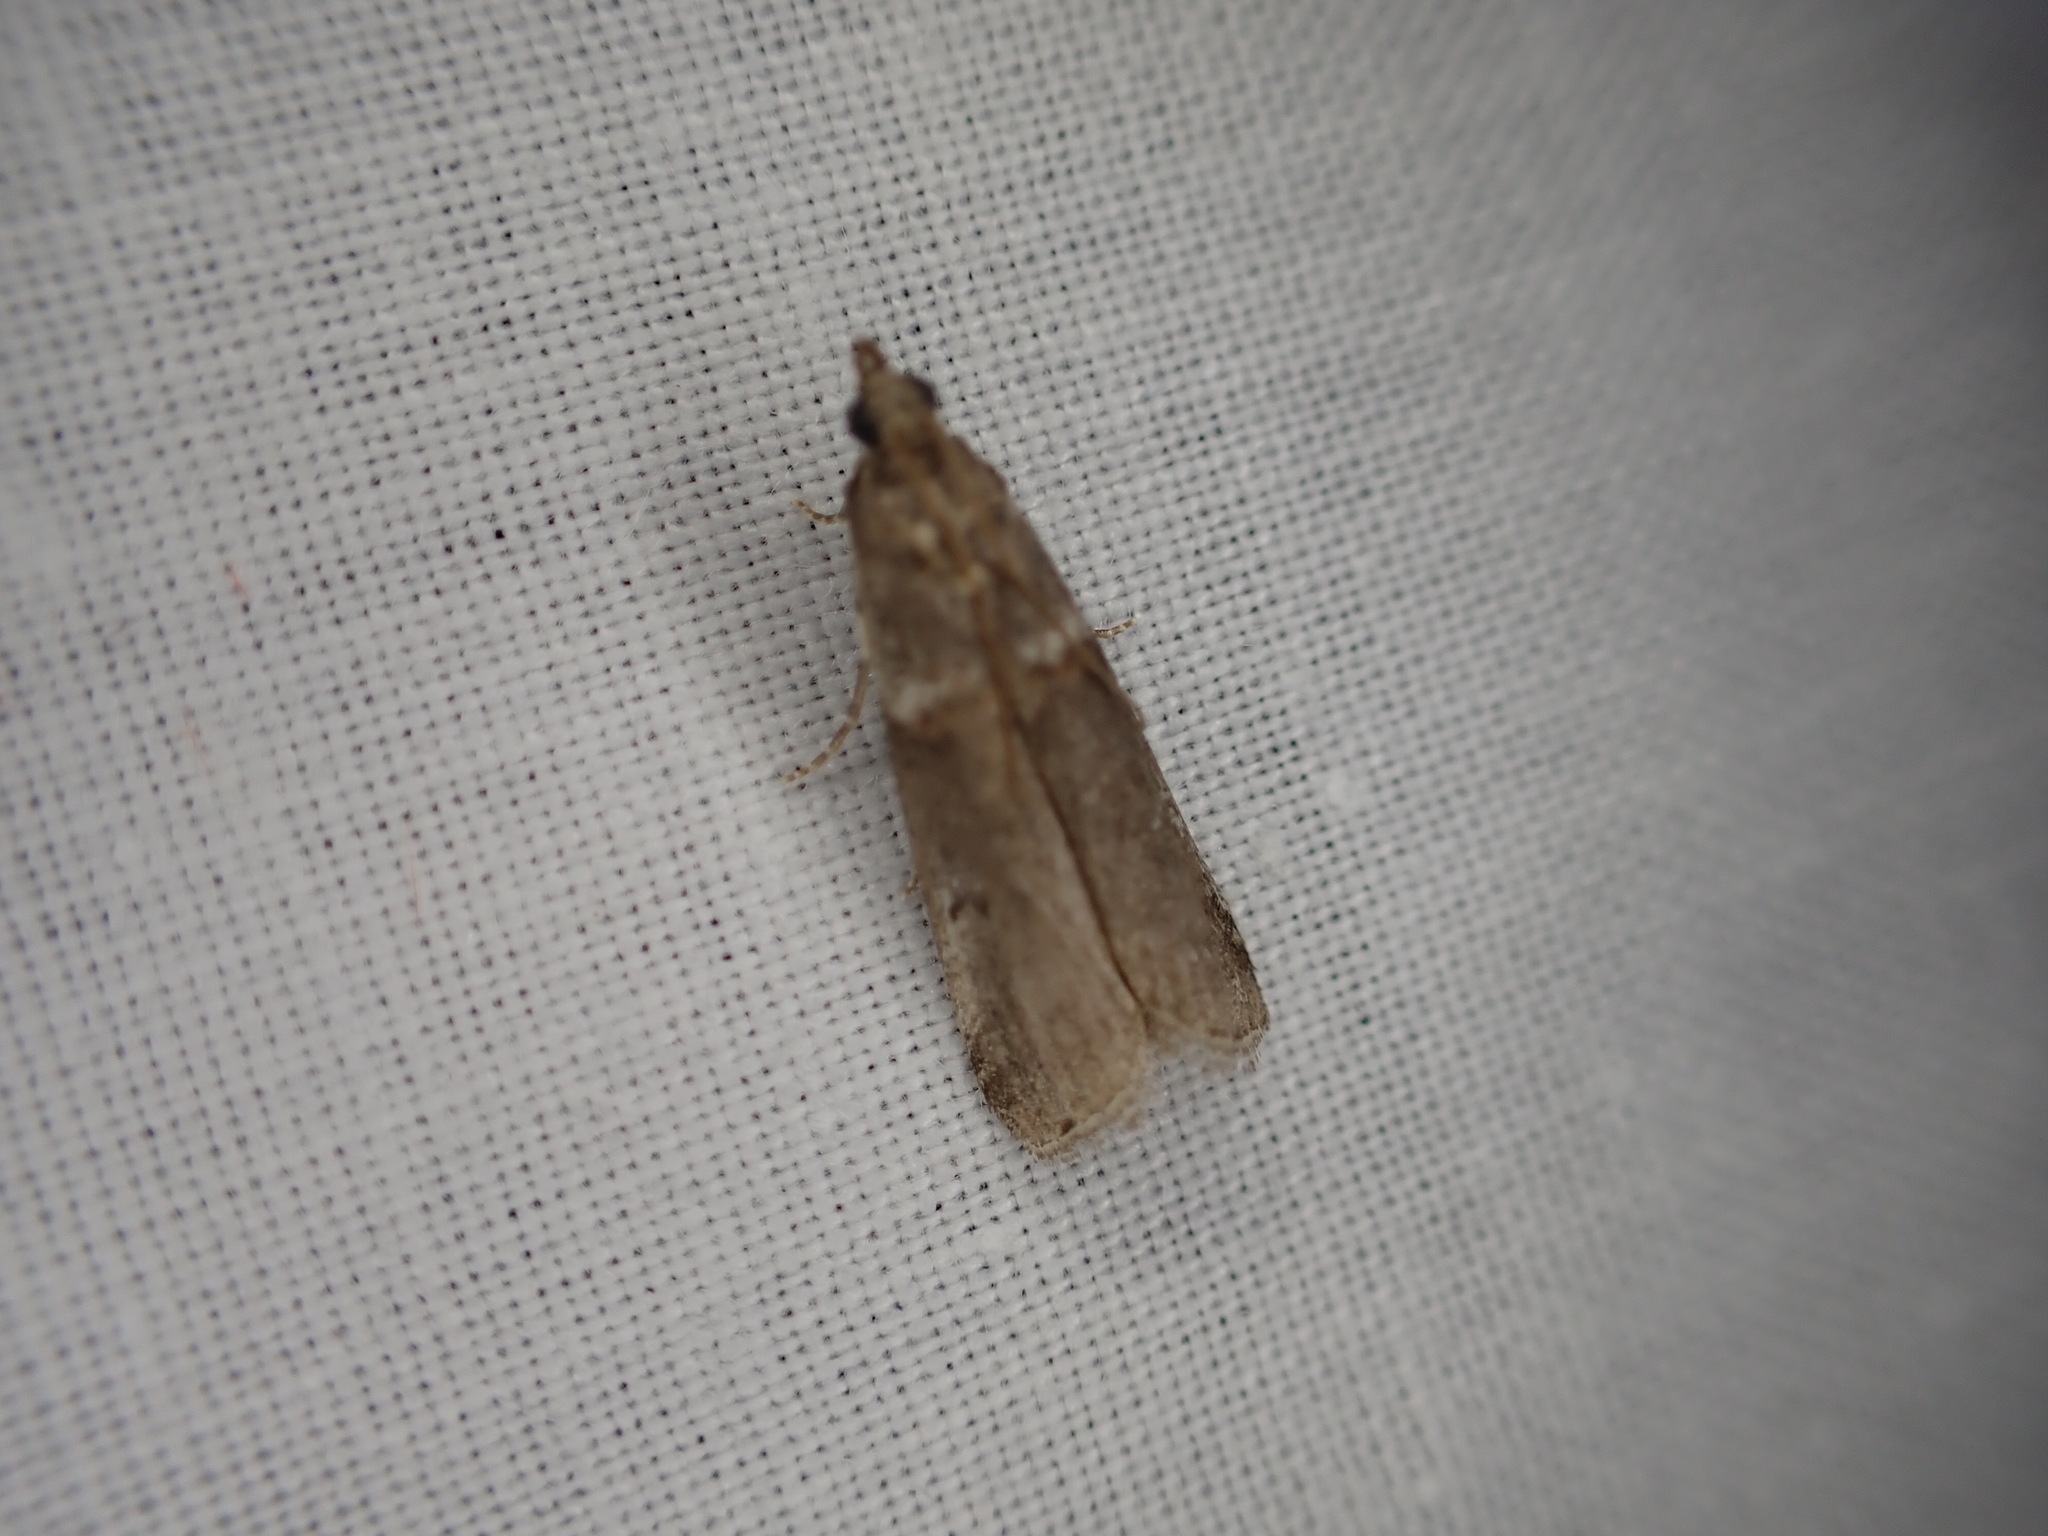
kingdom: Animalia
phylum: Arthropoda
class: Insecta
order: Lepidoptera
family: Pyralidae
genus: Acrobasis
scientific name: Acrobasis obliqua
